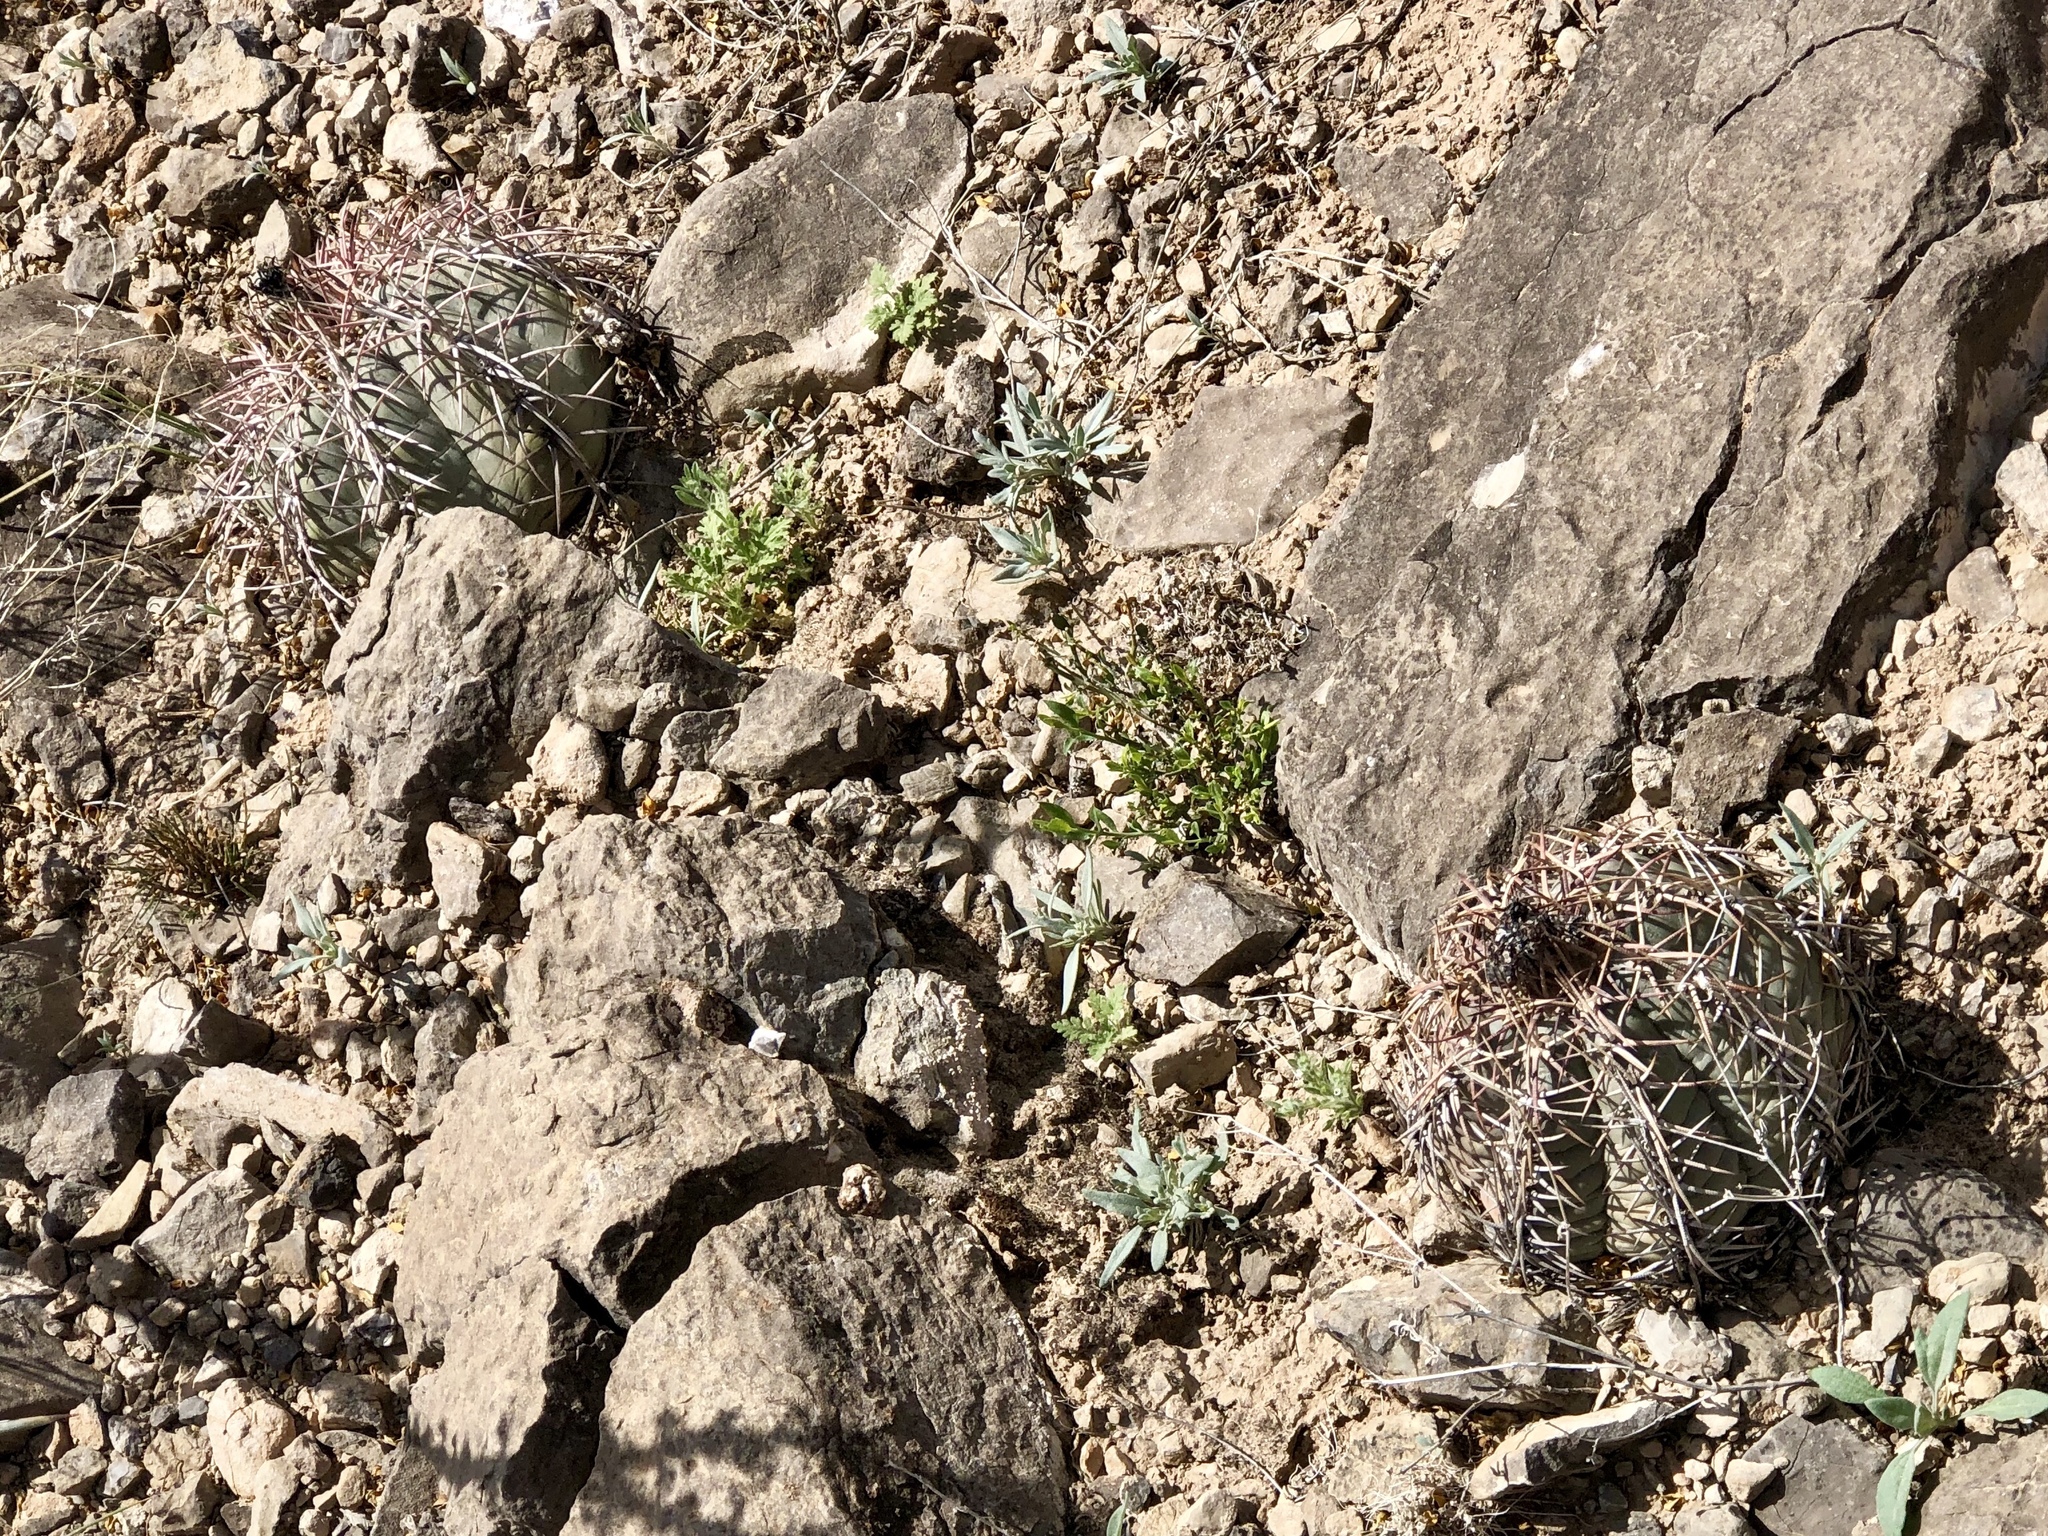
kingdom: Plantae
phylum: Tracheophyta
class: Magnoliopsida
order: Caryophyllales
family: Cactaceae
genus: Echinocactus
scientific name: Echinocactus horizonthalonius
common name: Devilshead
